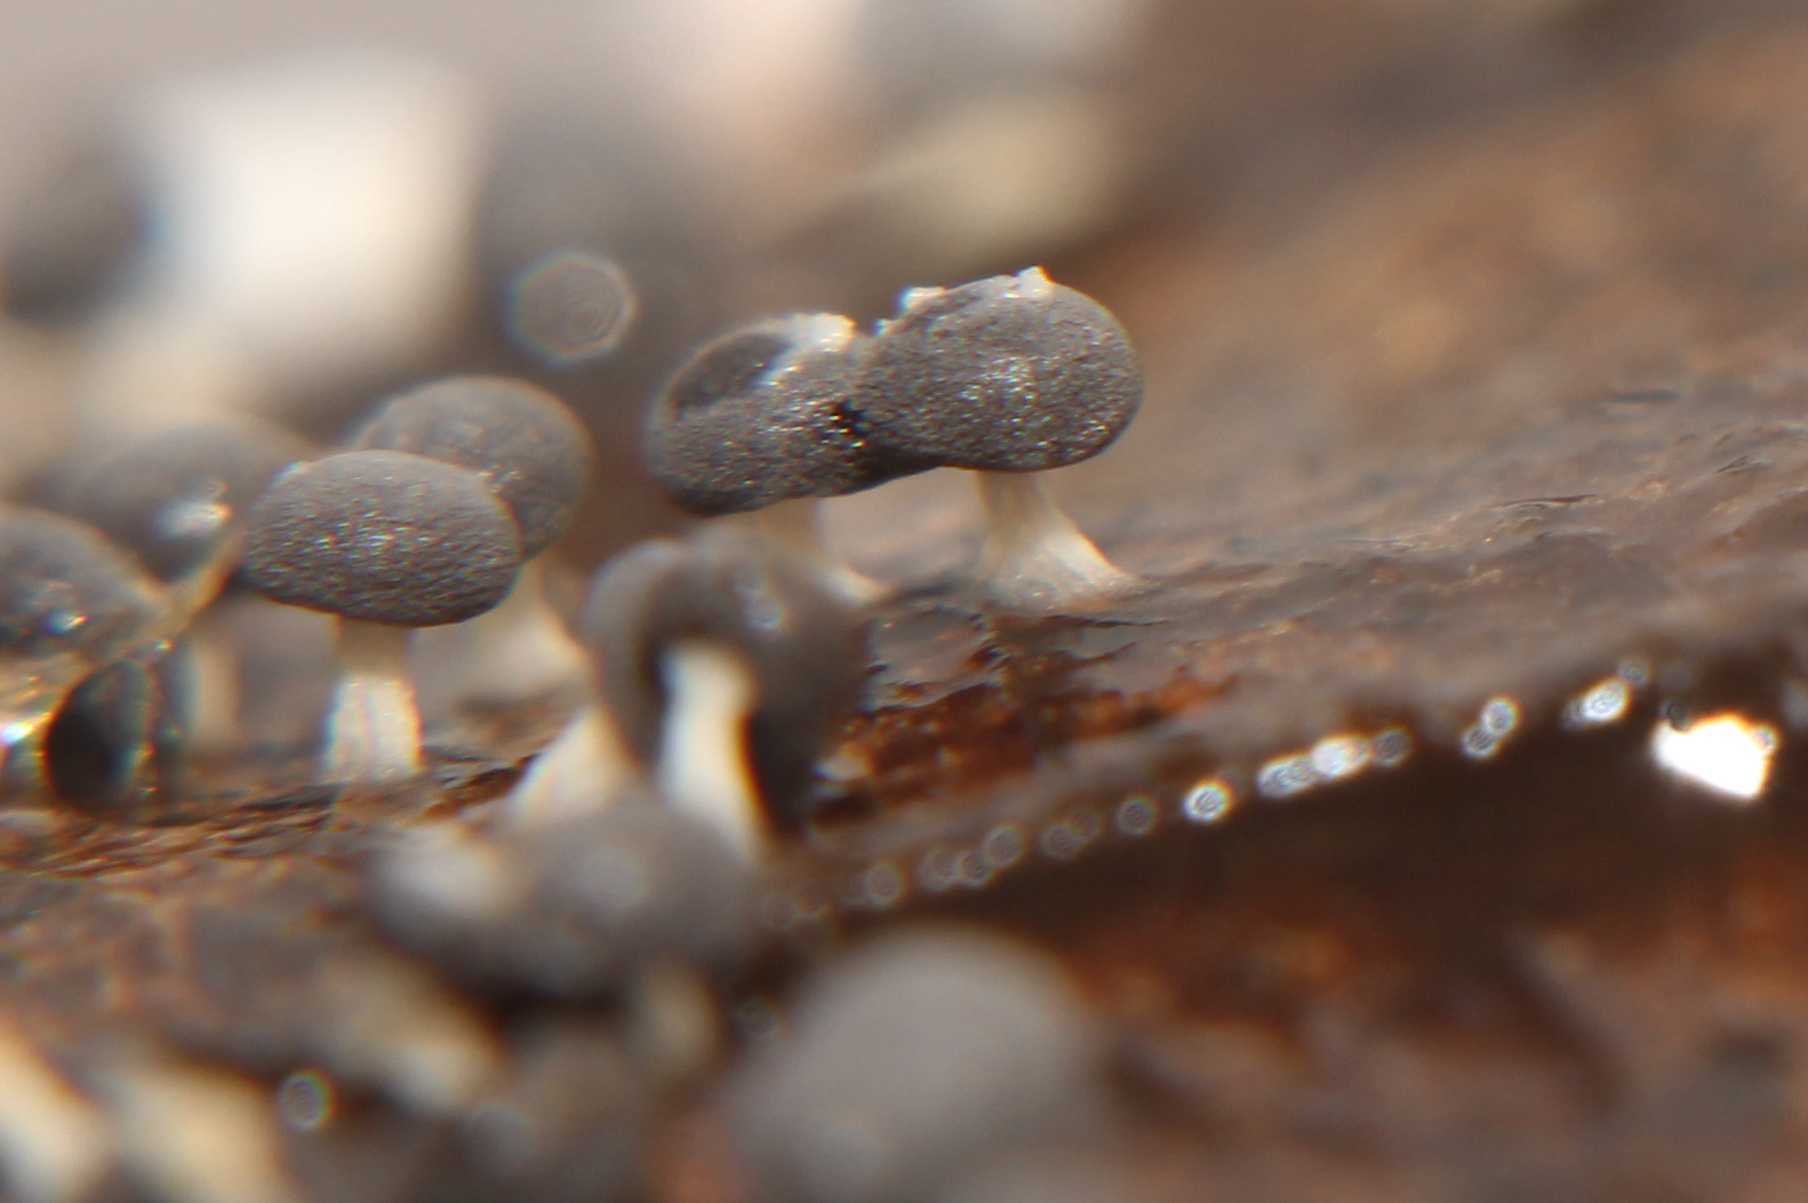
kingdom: Protozoa
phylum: Mycetozoa
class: Myxomycetes
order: Physarales
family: Physaraceae
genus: Didymium
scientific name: Didymium
